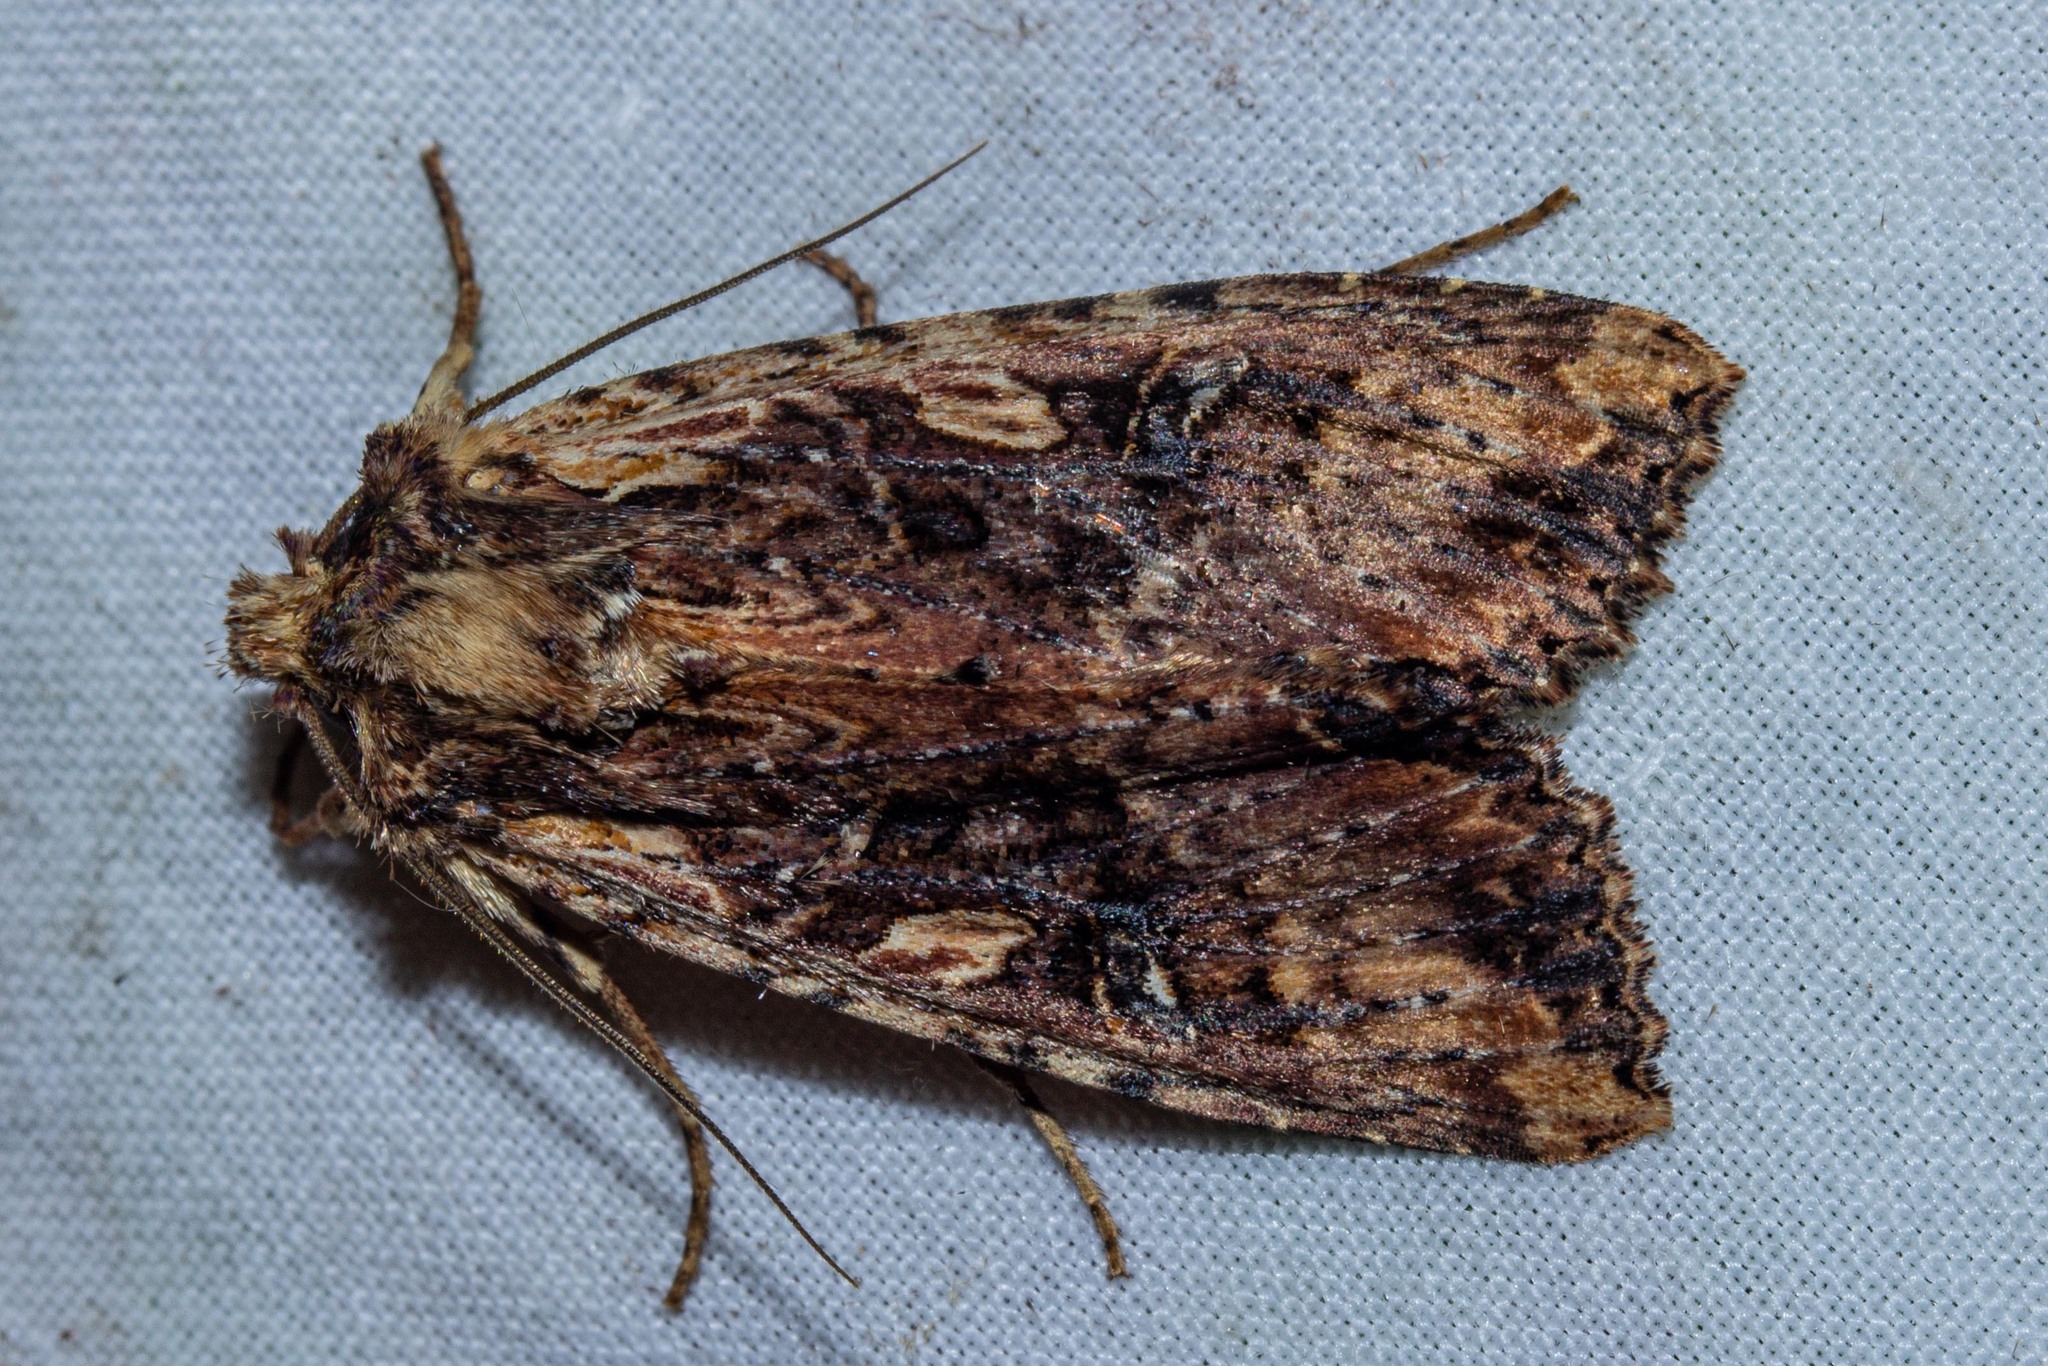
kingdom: Animalia
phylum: Arthropoda
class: Insecta
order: Lepidoptera
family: Noctuidae
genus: Meterana
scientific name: Meterana stipata
